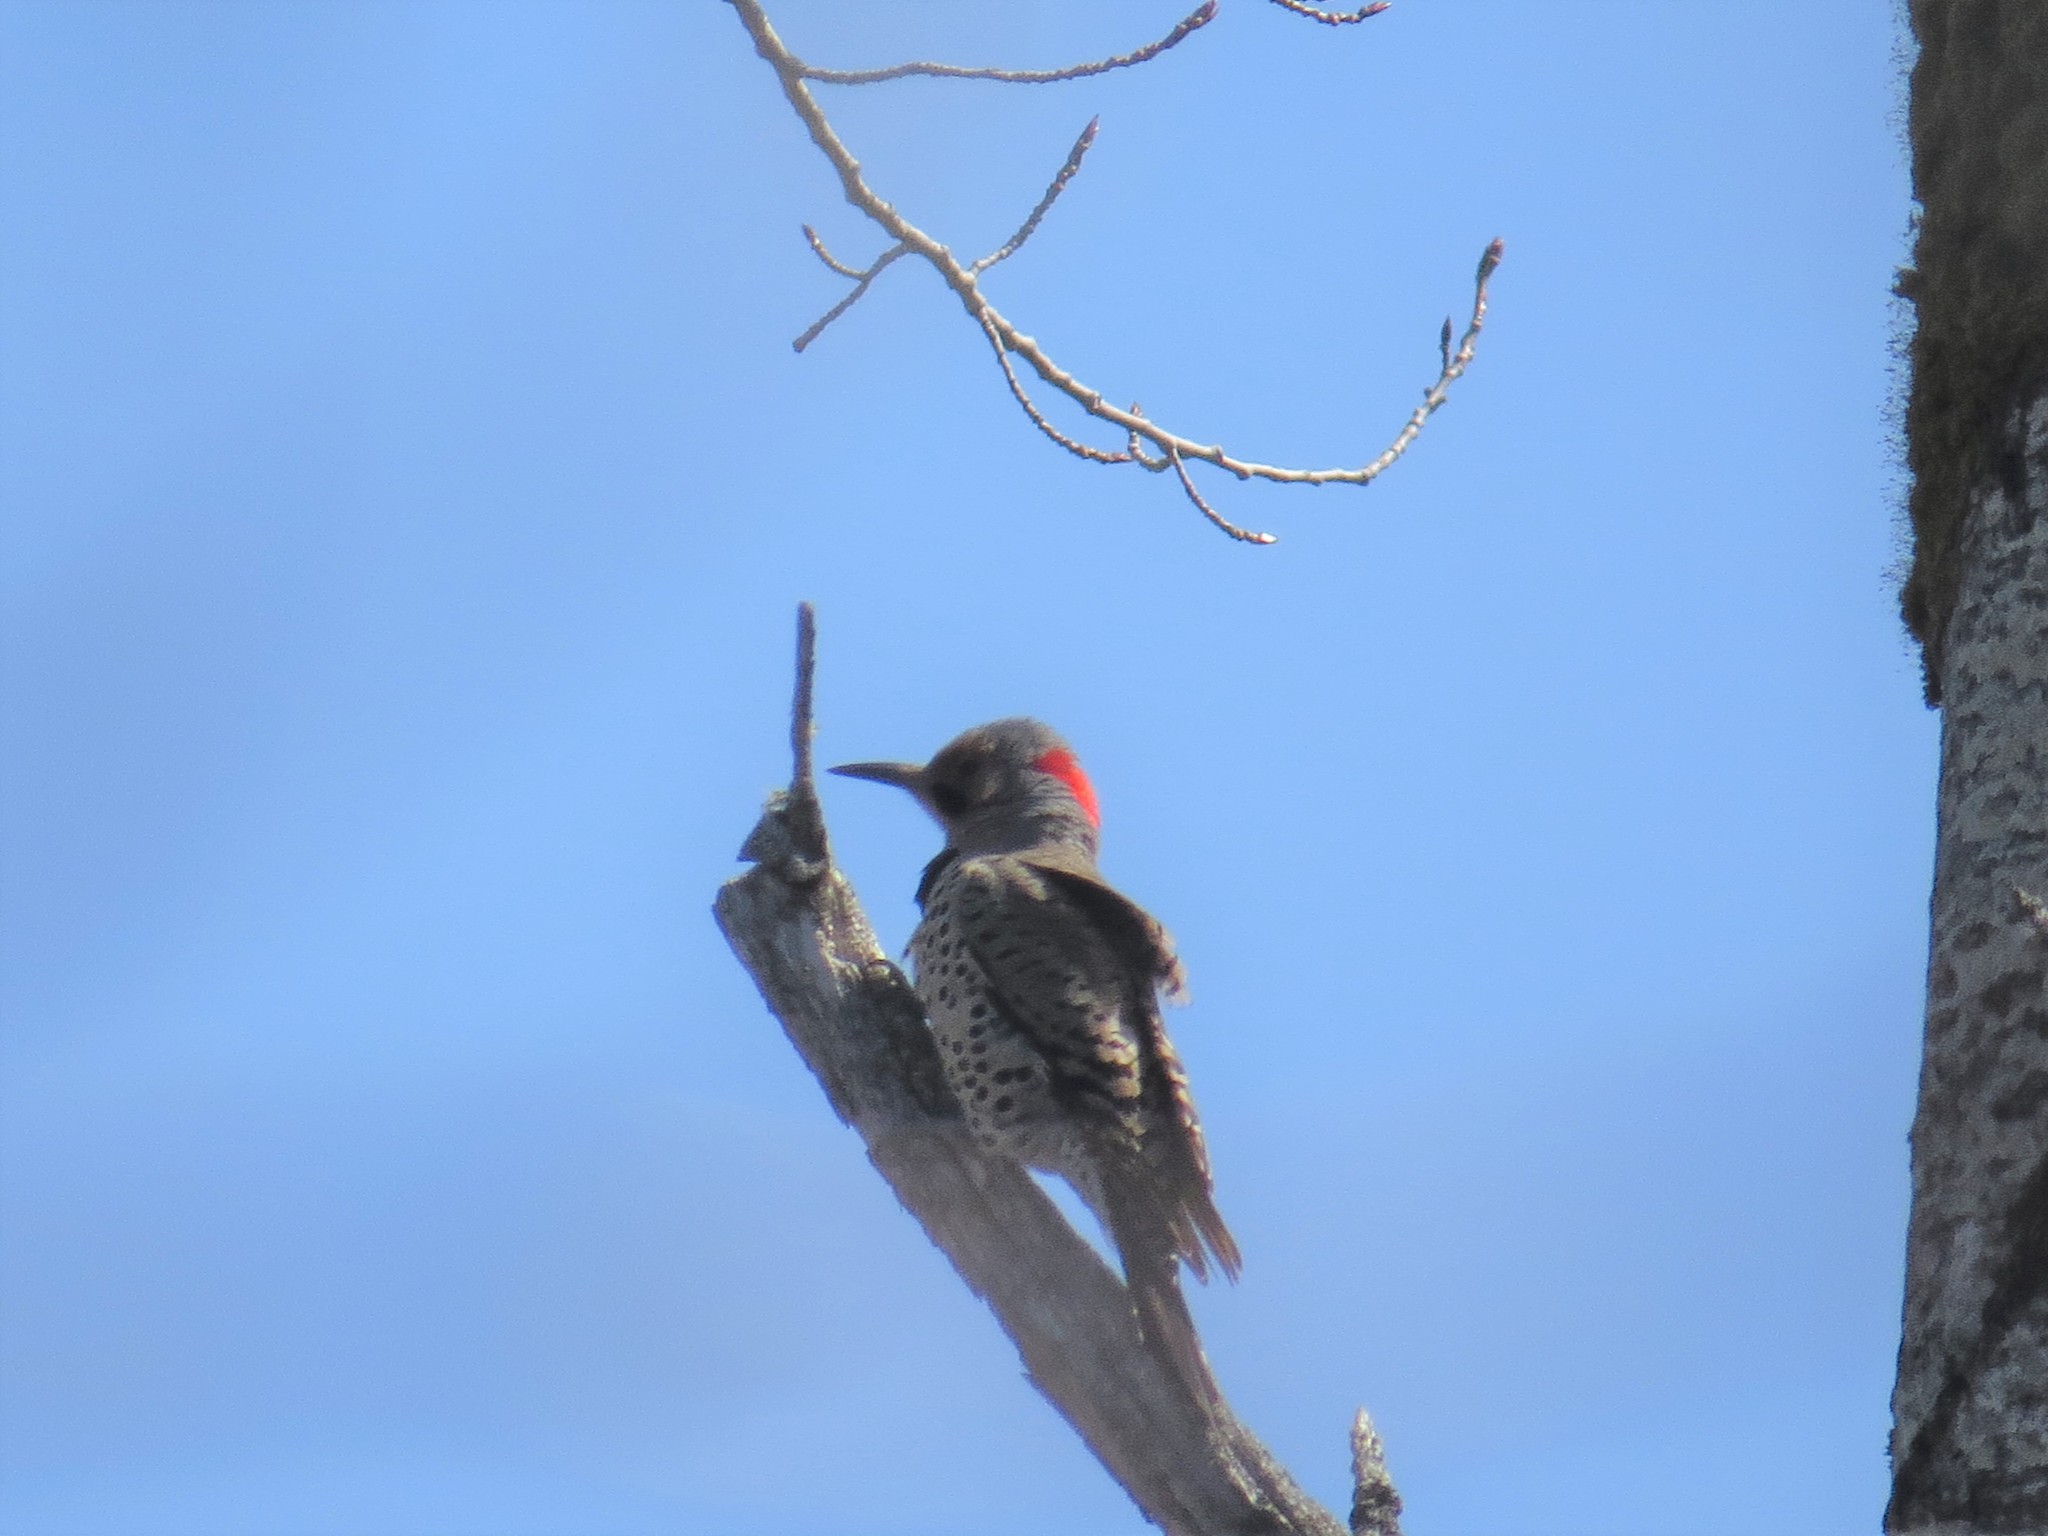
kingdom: Animalia
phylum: Chordata
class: Aves
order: Piciformes
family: Picidae
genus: Colaptes
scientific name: Colaptes auratus
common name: Northern flicker
